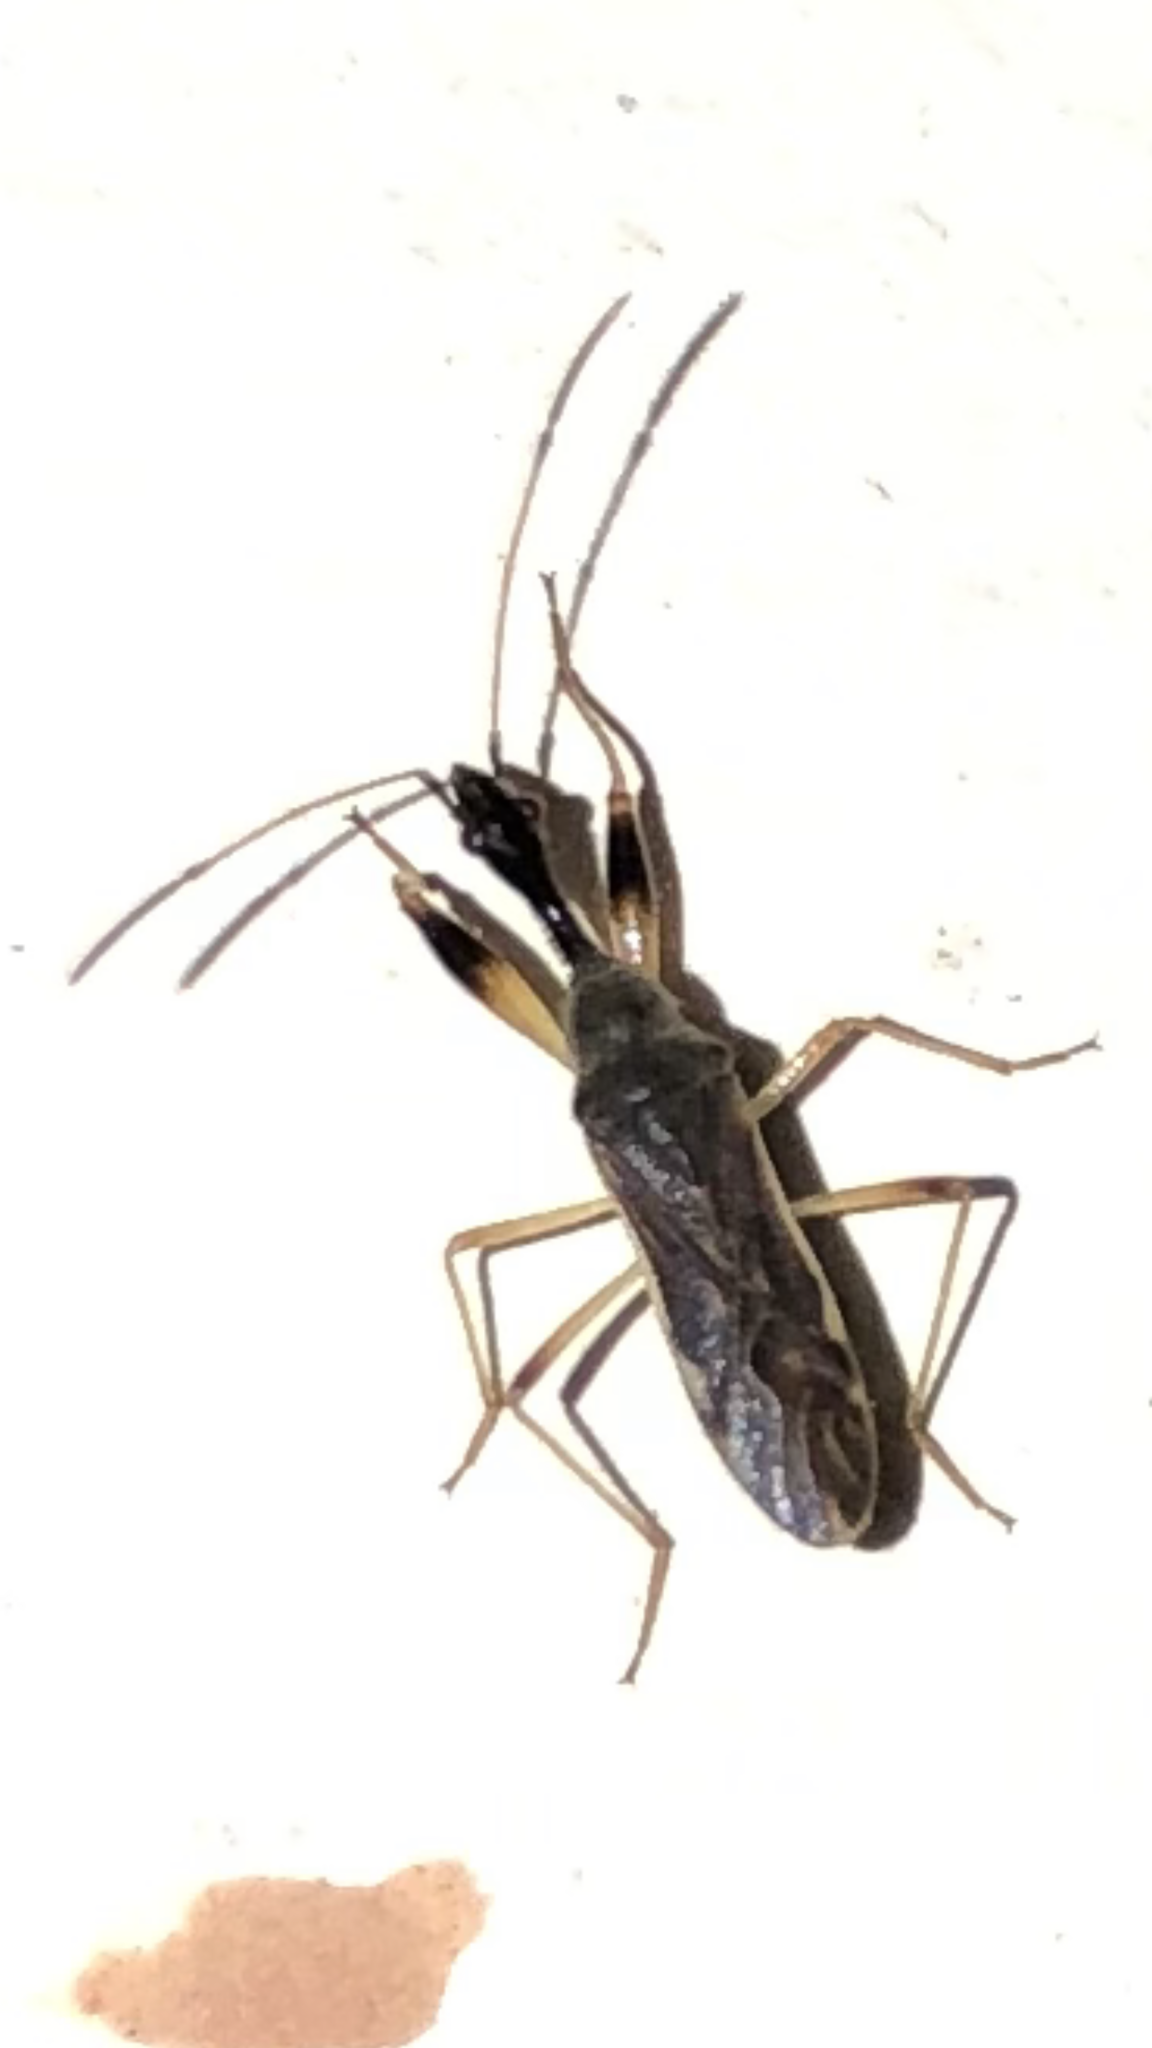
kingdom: Animalia
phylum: Arthropoda
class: Insecta
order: Hemiptera
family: Rhyparochromidae
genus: Myodocha
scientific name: Myodocha serripes
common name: Long-necked seed bug
